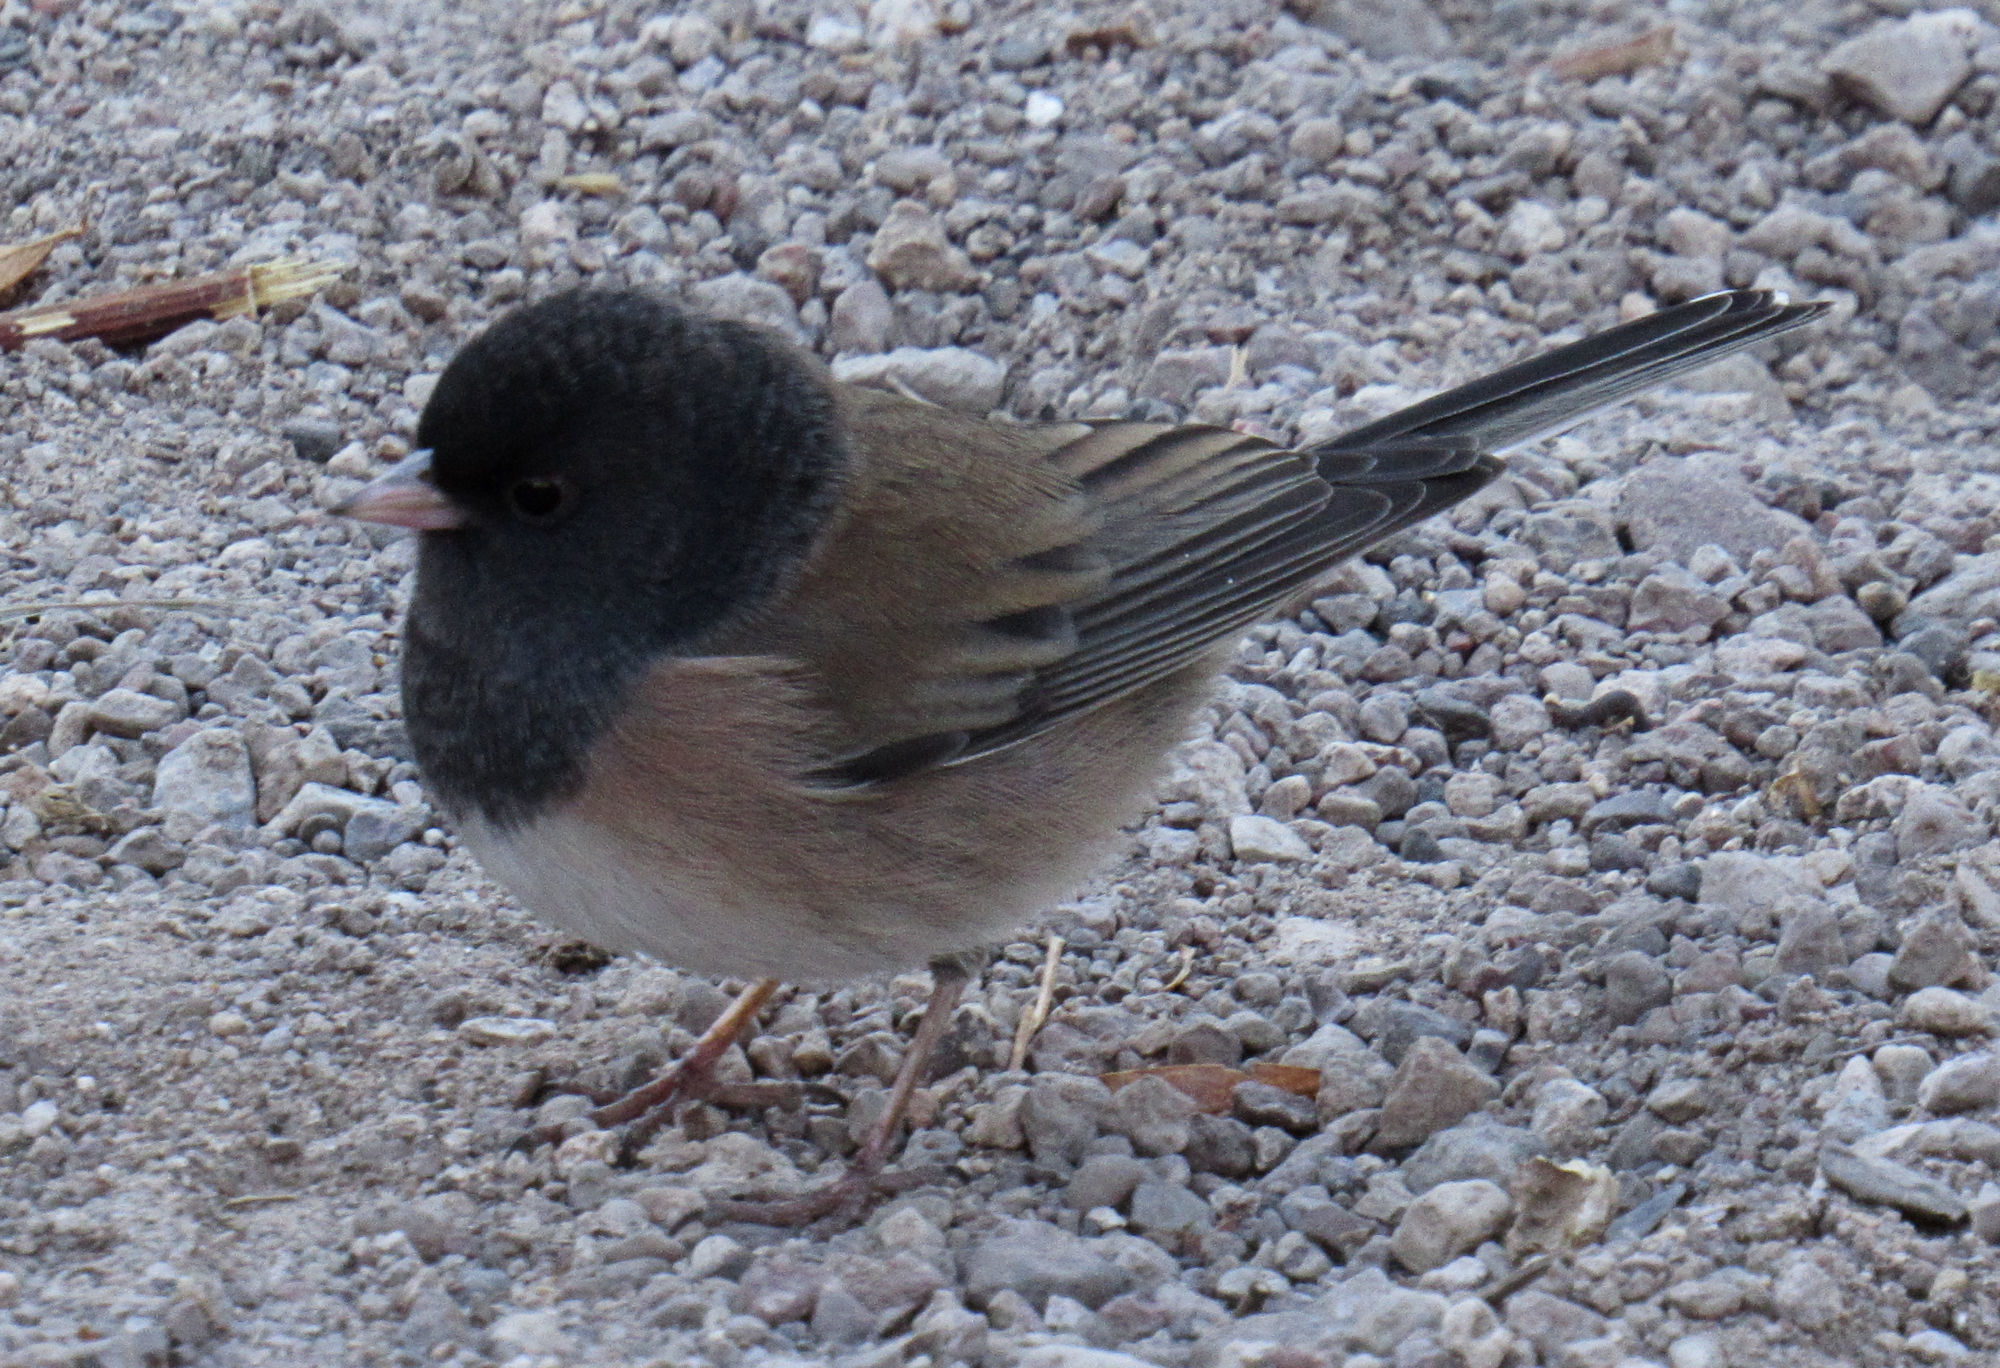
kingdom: Animalia
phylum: Chordata
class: Aves
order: Passeriformes
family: Passerellidae
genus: Junco
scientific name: Junco hyemalis
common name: Dark-eyed junco
